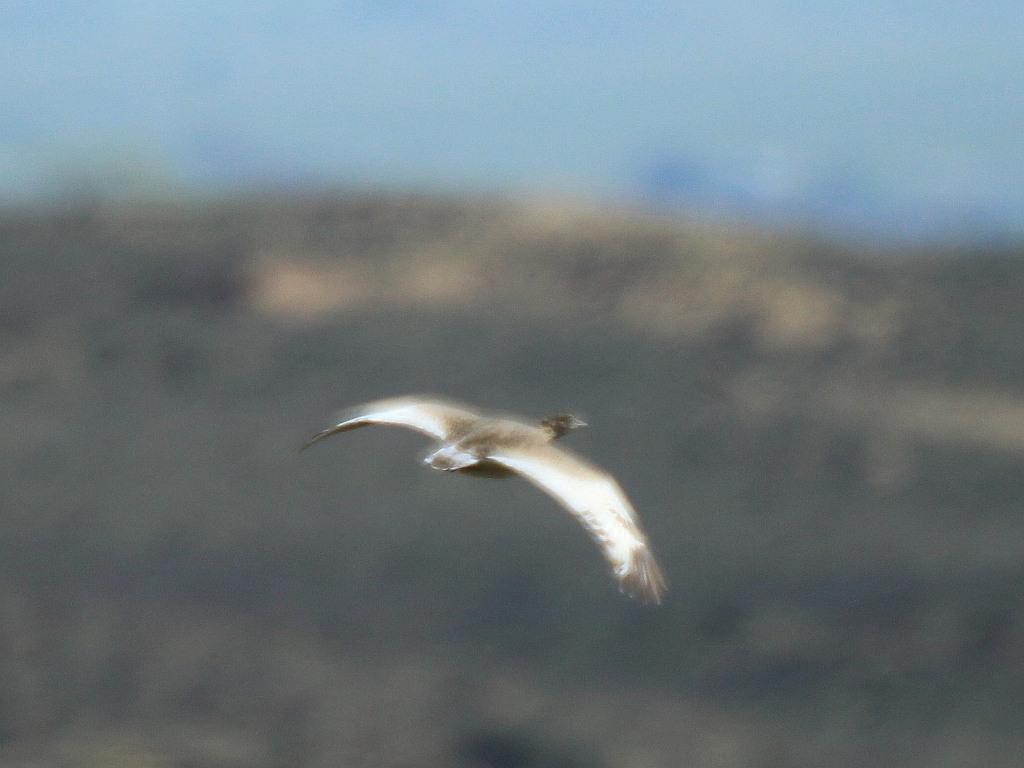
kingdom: Animalia
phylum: Chordata
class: Aves
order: Otidiformes
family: Otididae
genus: Tetrax
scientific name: Tetrax tetrax
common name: Little bustard
